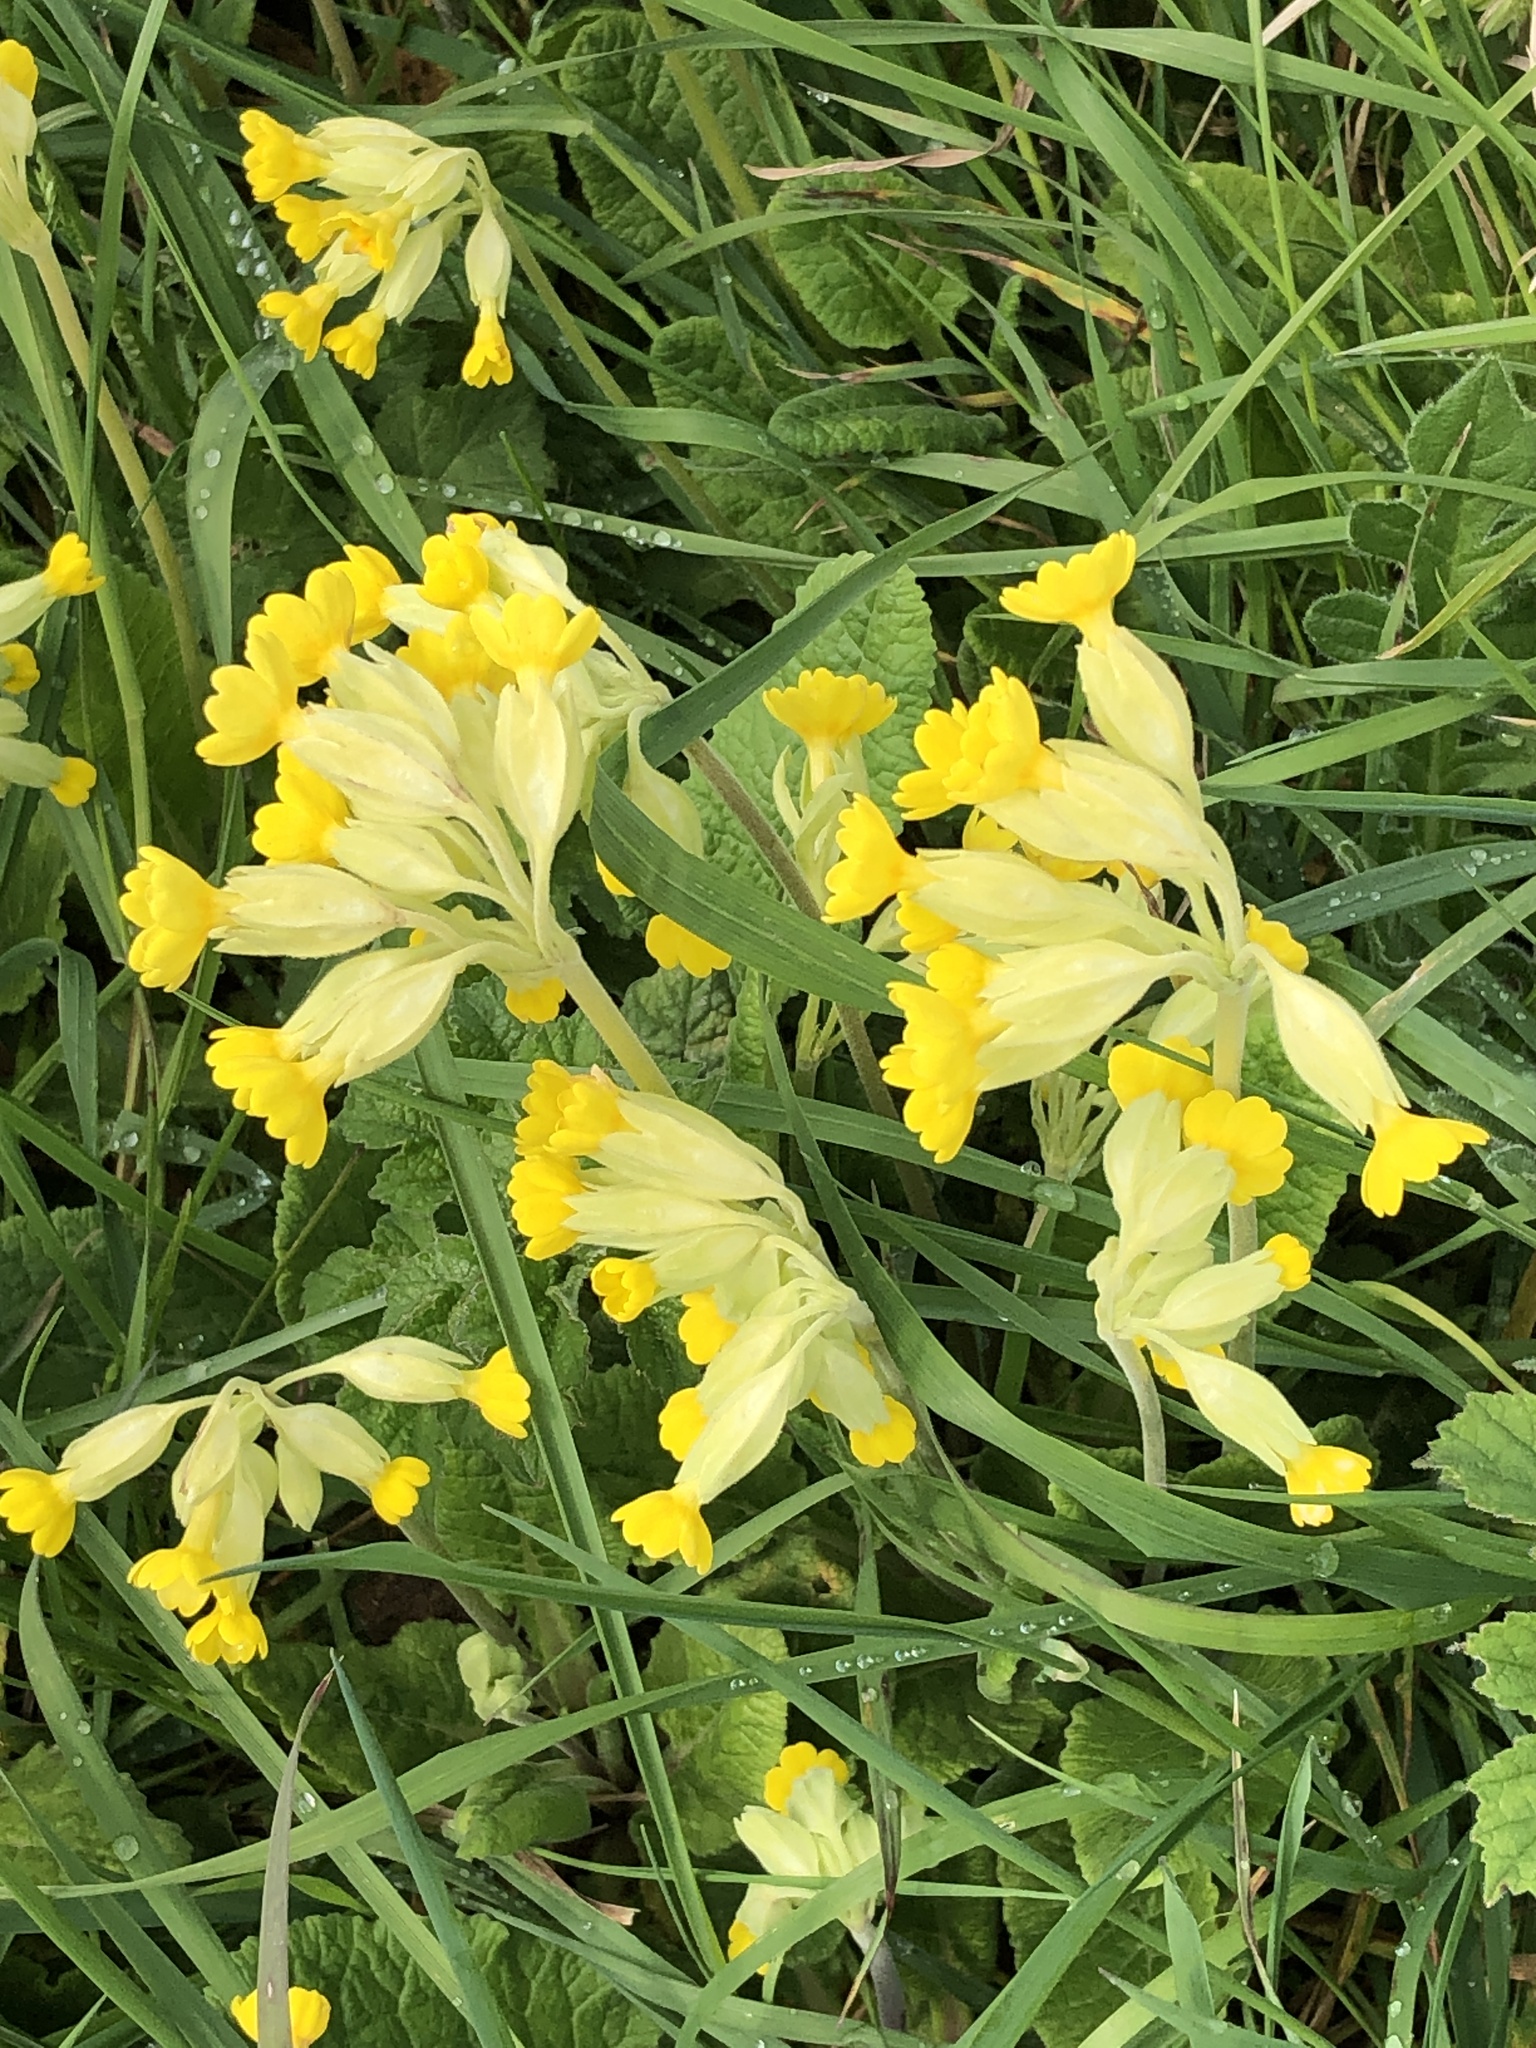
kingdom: Plantae
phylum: Tracheophyta
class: Magnoliopsida
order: Ericales
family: Primulaceae
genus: Primula
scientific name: Primula veris
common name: Cowslip
